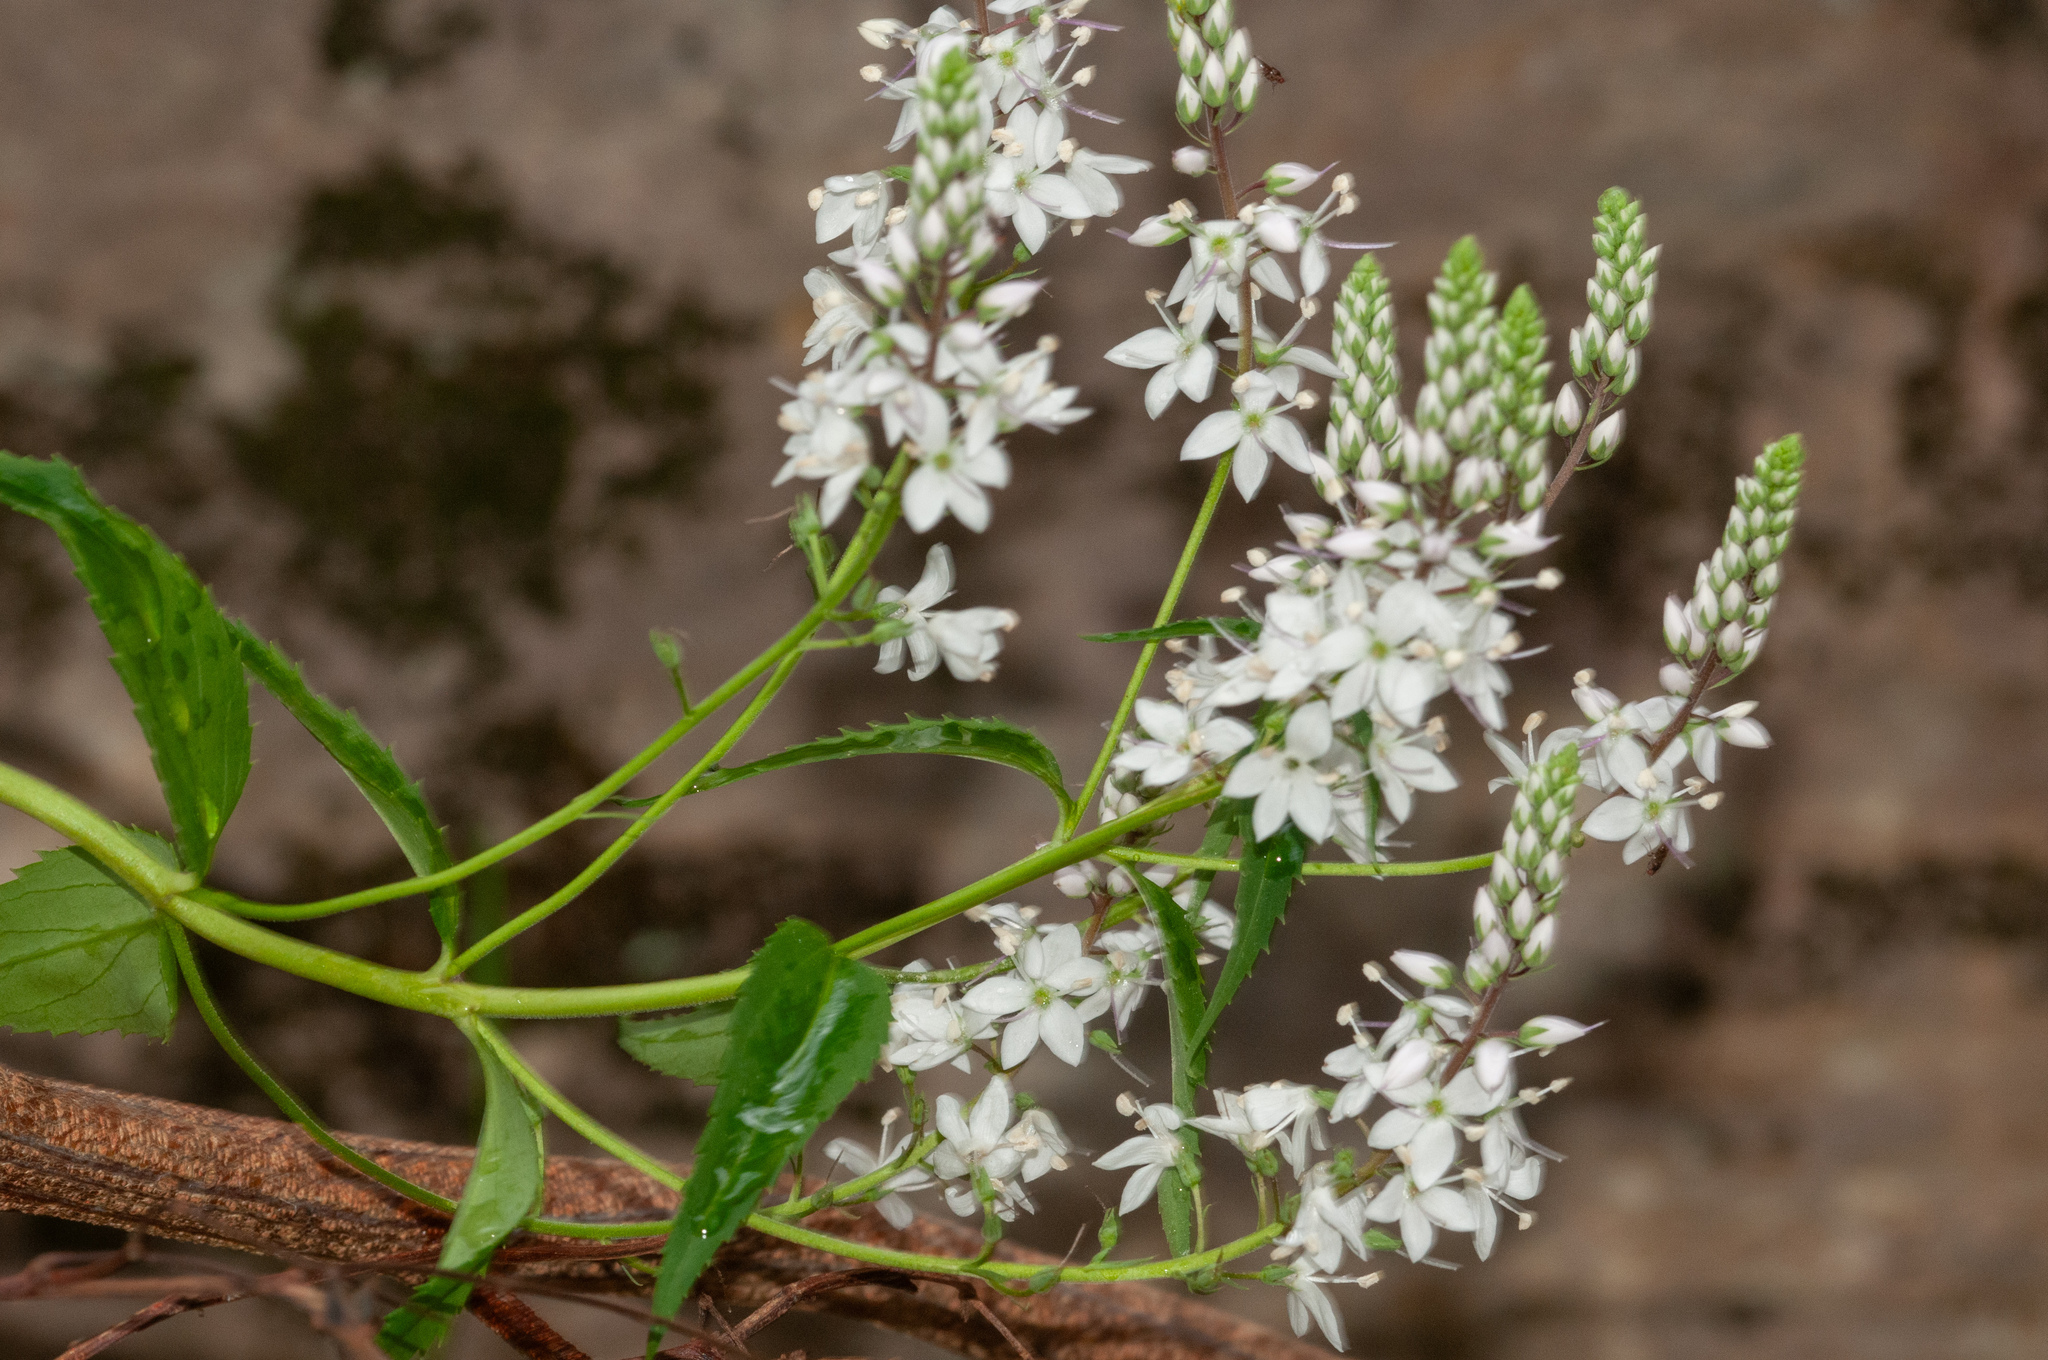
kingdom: Plantae
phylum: Tracheophyta
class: Magnoliopsida
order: Lamiales
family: Plantaginaceae
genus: Veronica
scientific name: Veronica derwentiana
